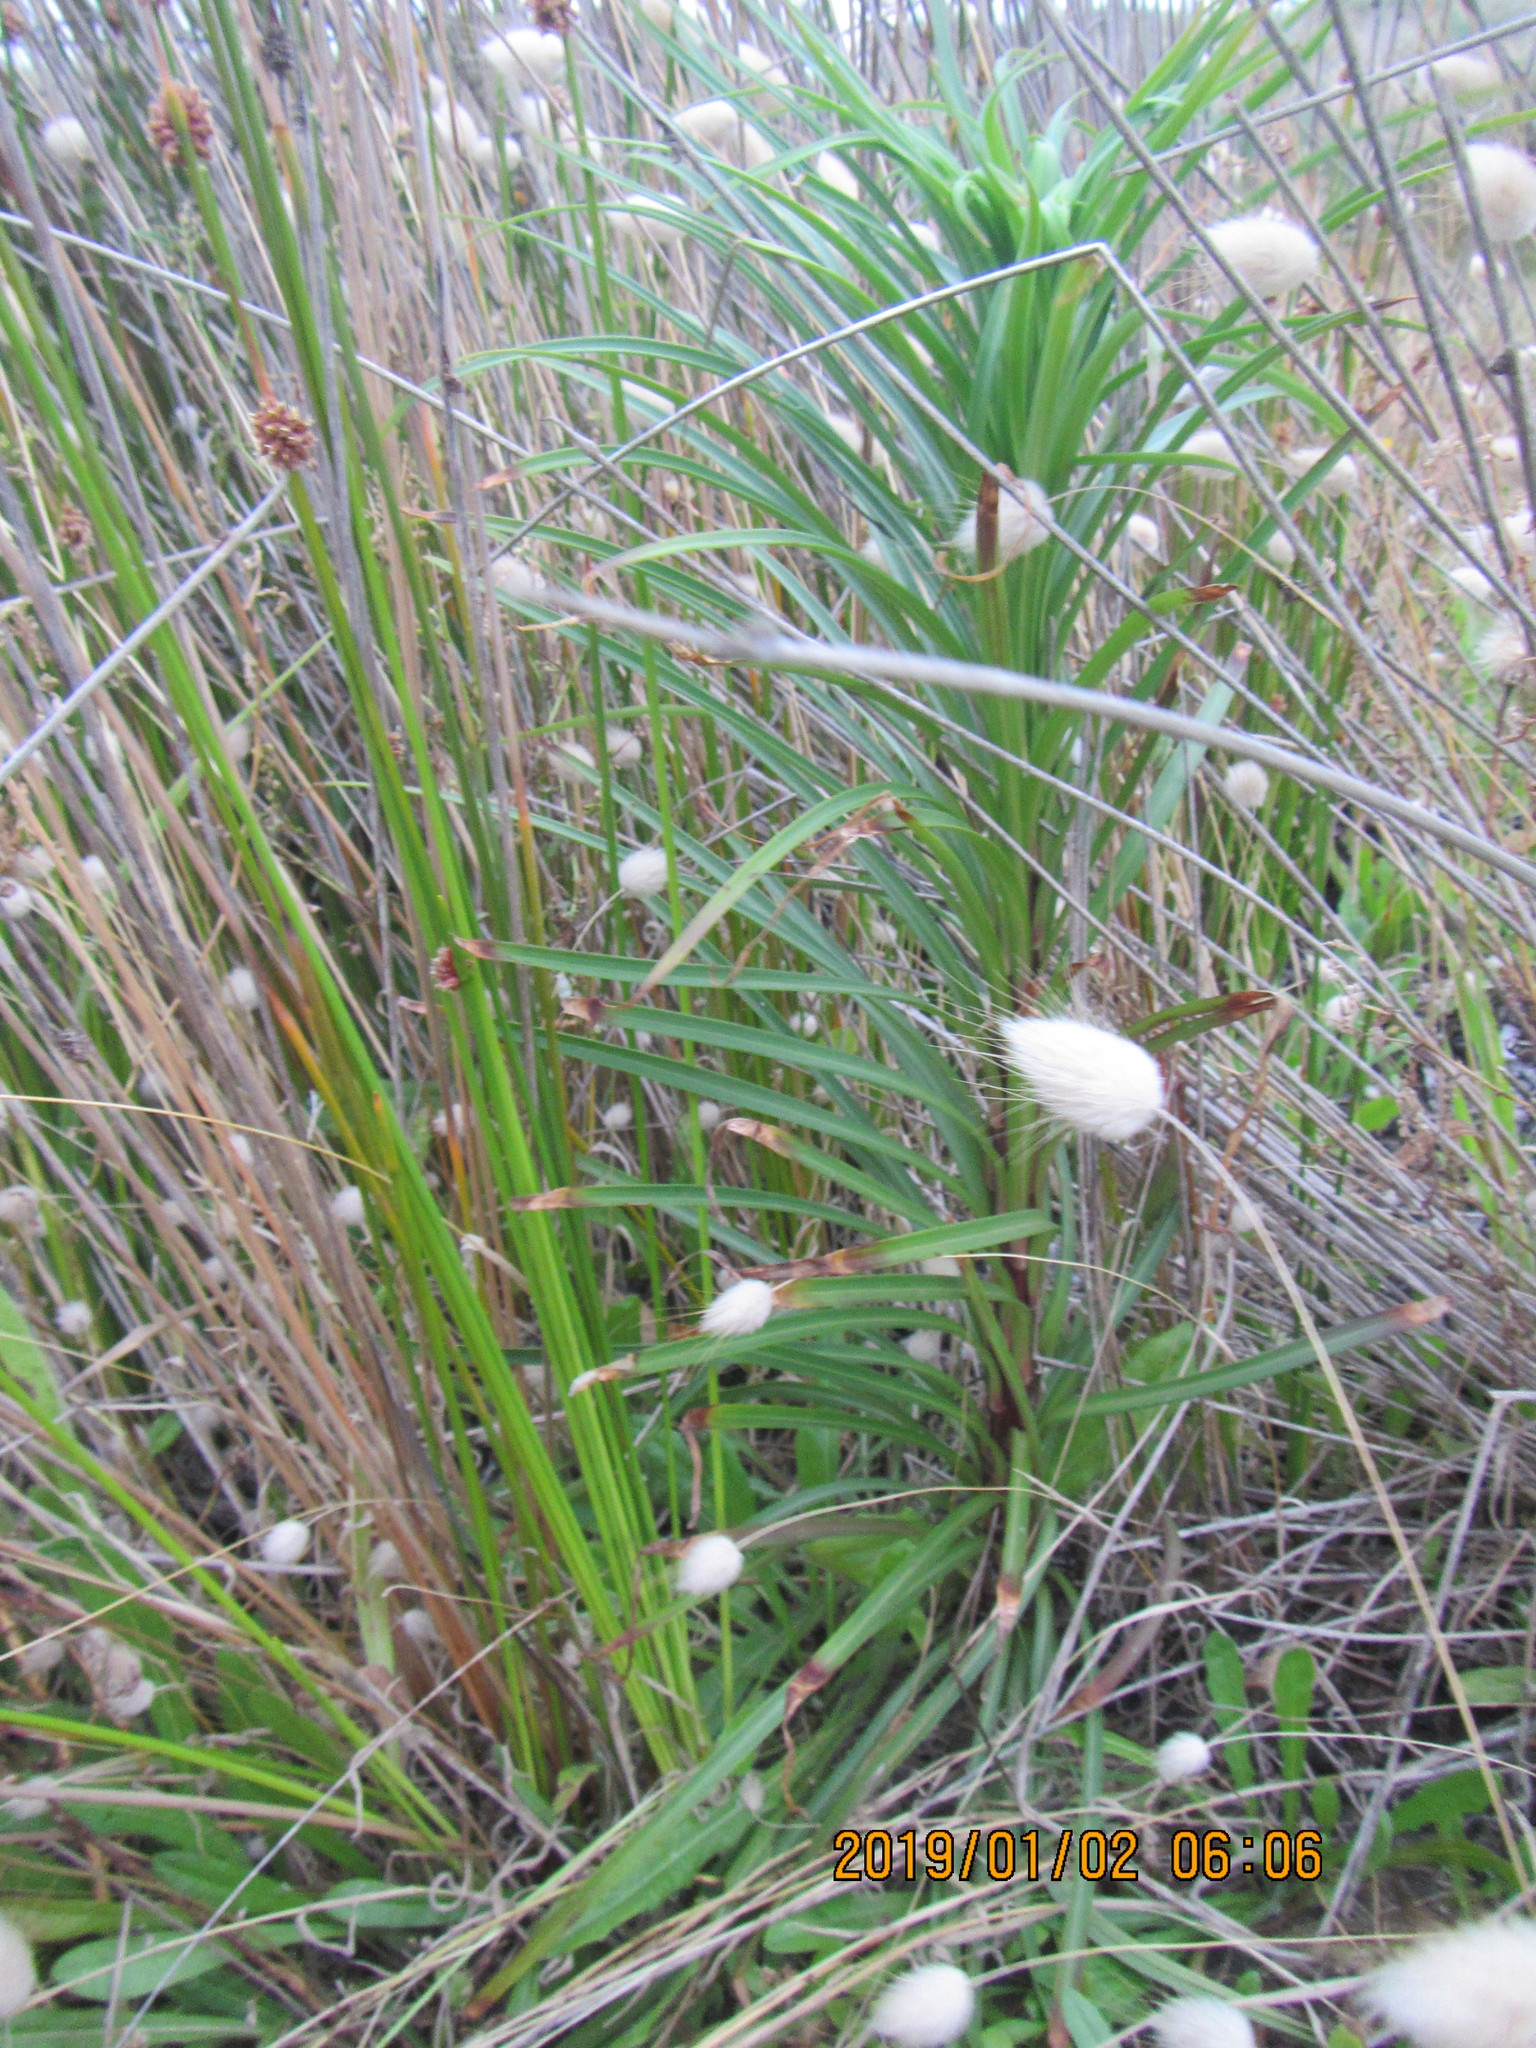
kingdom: Plantae
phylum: Tracheophyta
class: Liliopsida
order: Liliales
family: Liliaceae
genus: Lilium
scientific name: Lilium formosanum
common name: Formosa lily
